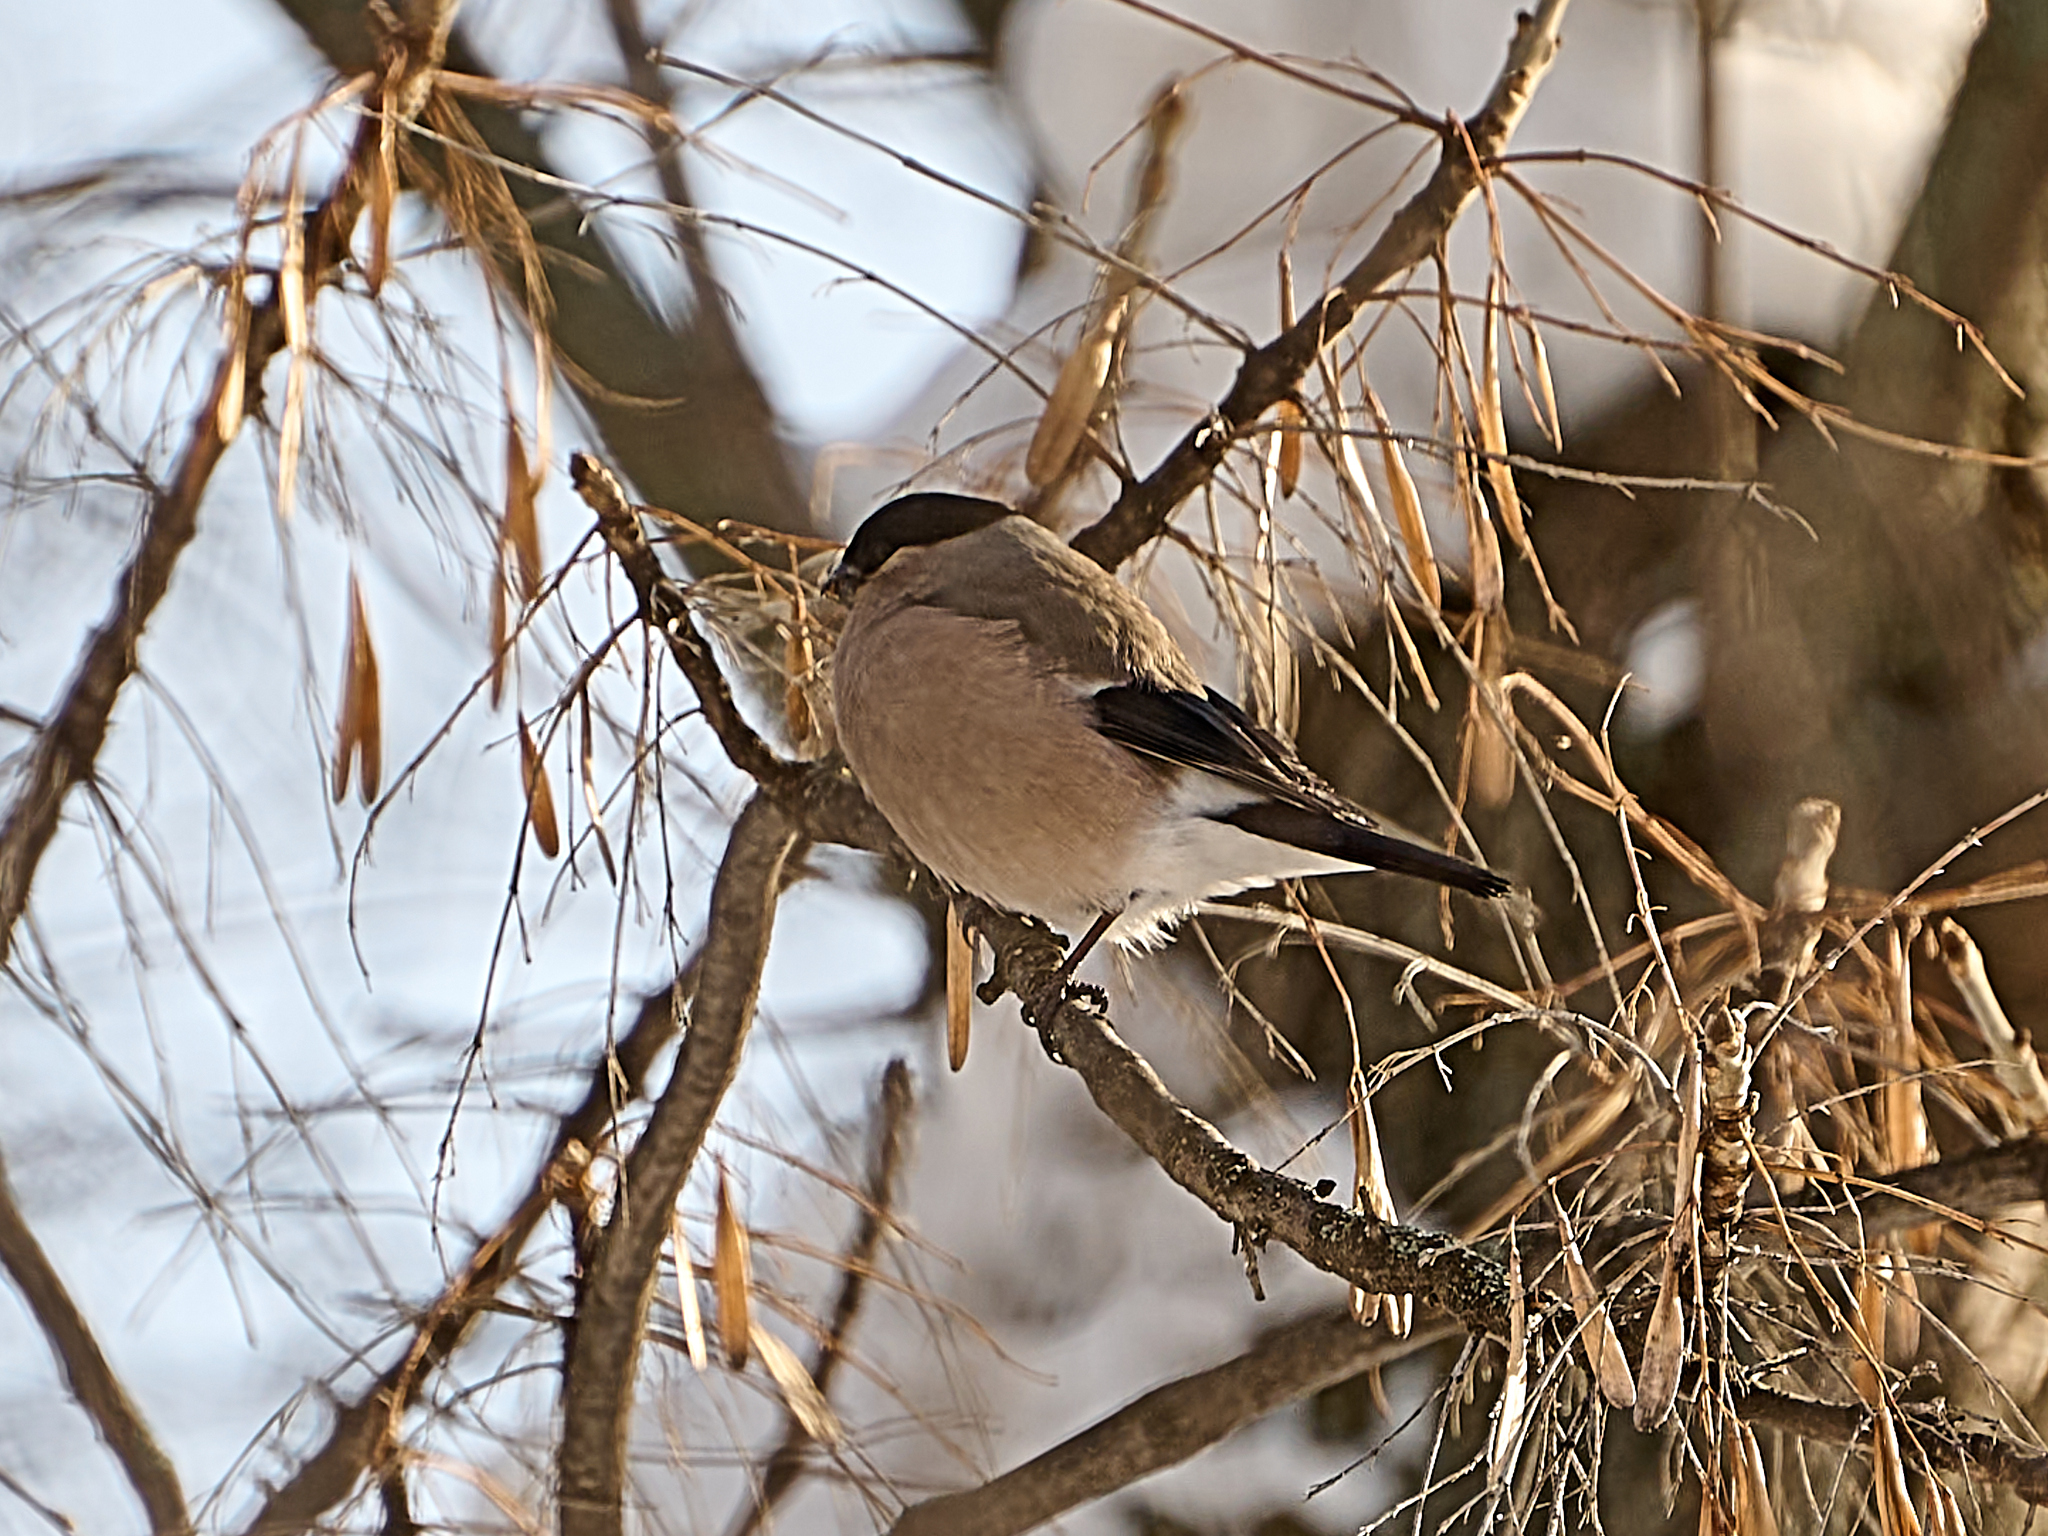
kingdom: Animalia
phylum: Chordata
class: Aves
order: Passeriformes
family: Fringillidae
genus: Pyrrhula
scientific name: Pyrrhula pyrrhula
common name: Eurasian bullfinch
